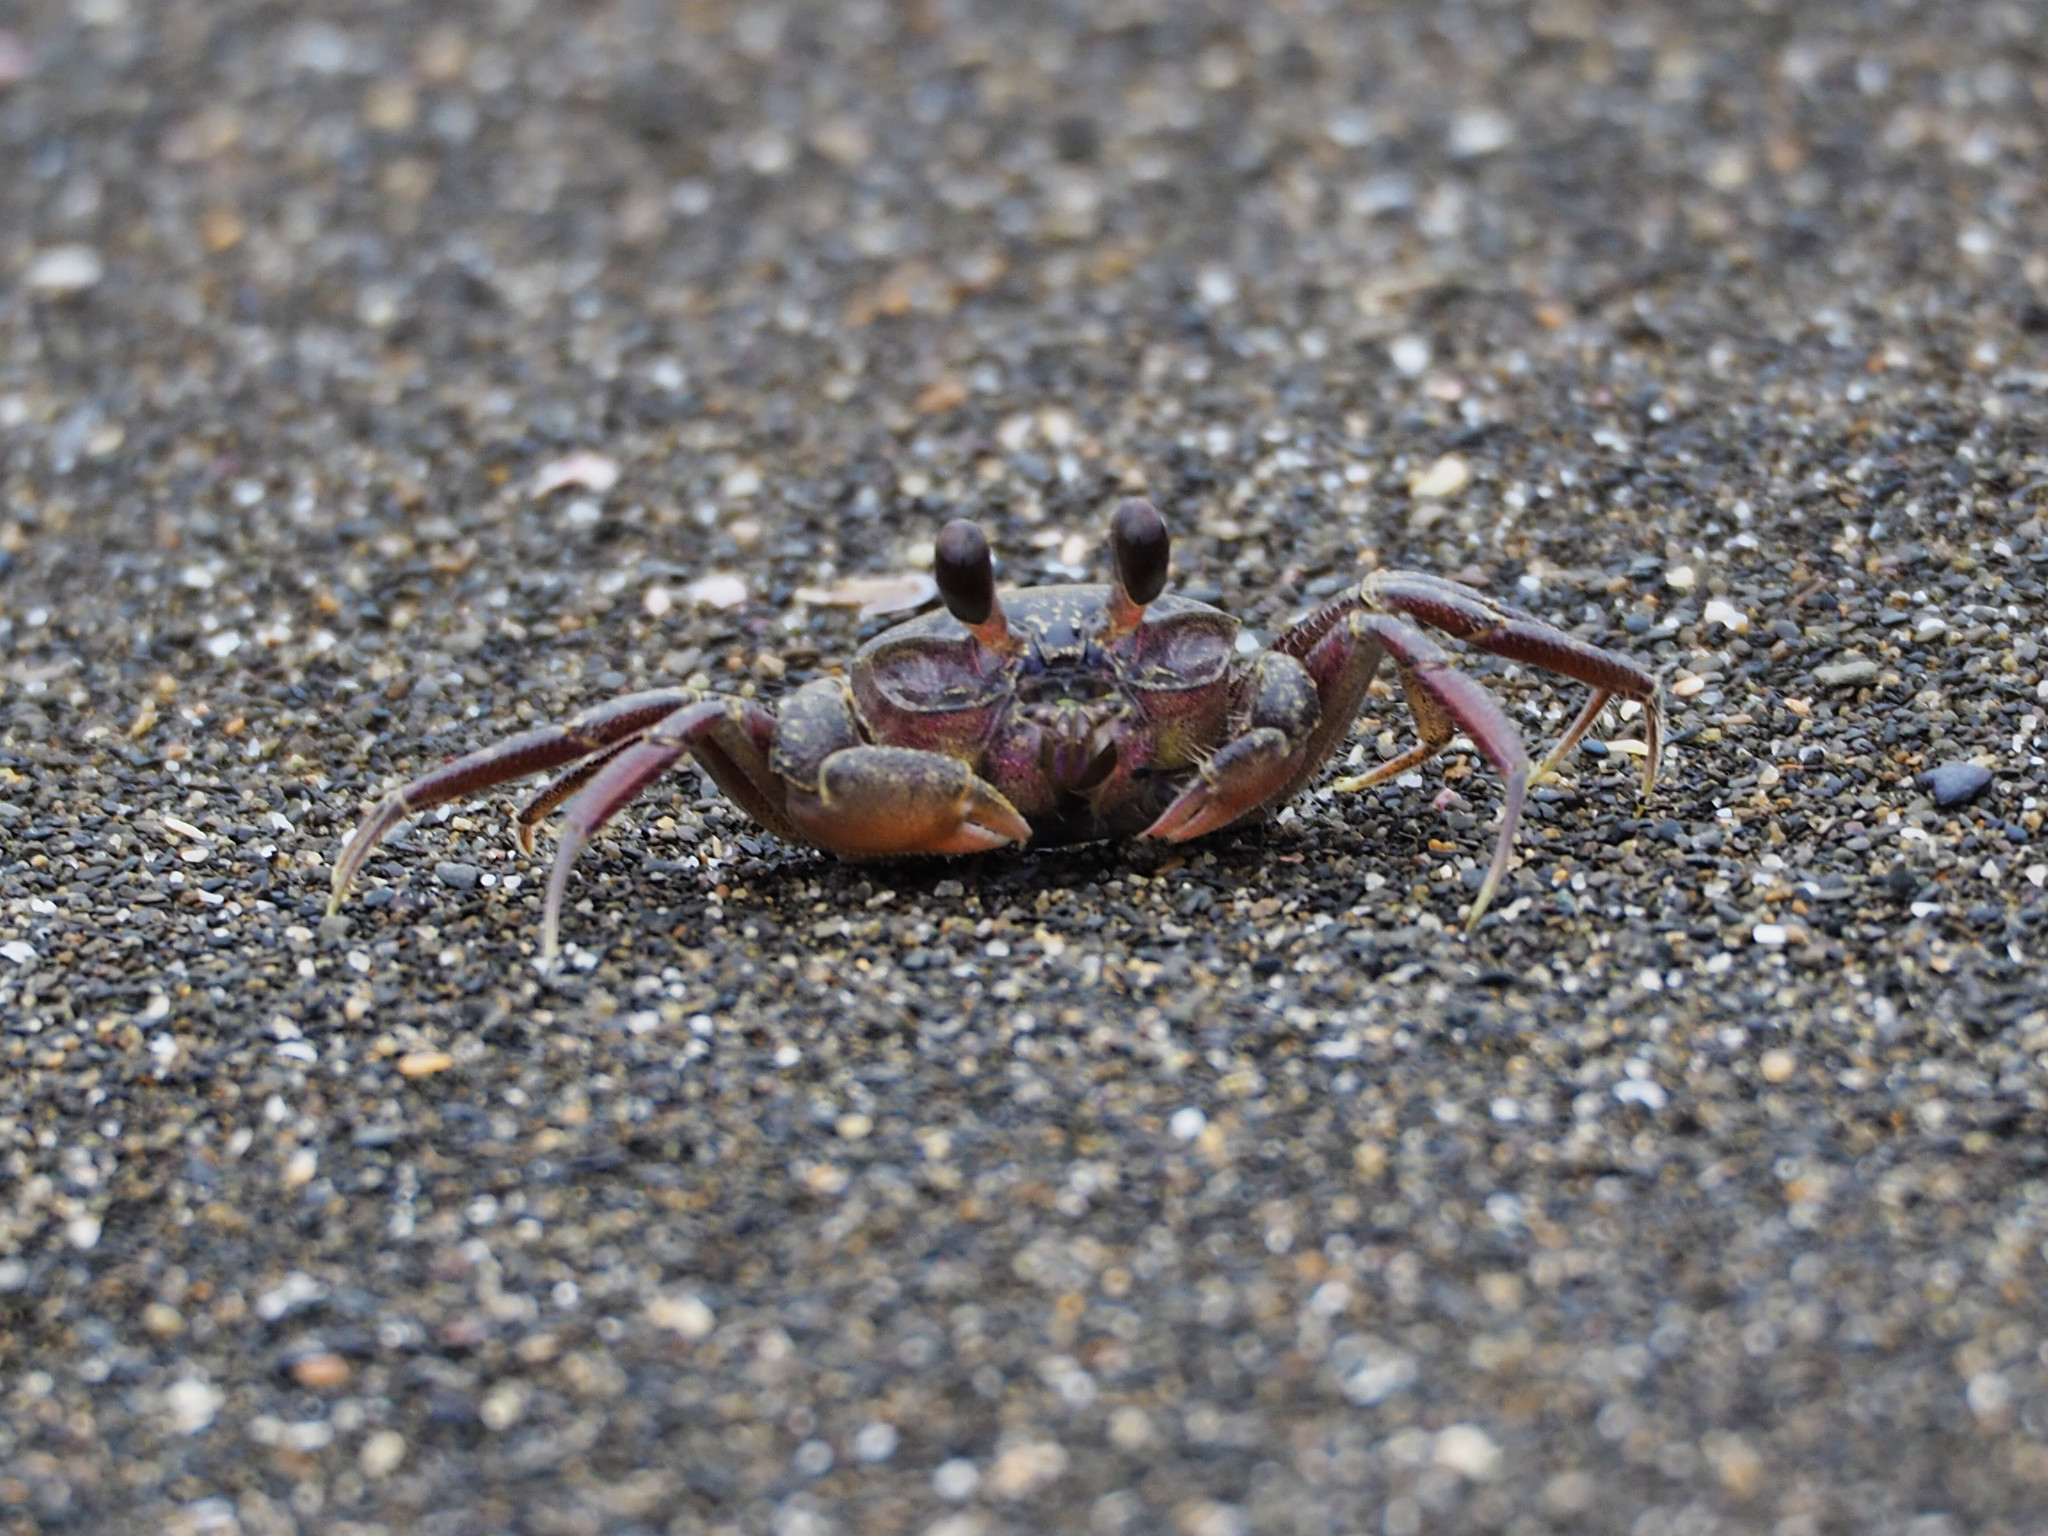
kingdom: Animalia
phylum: Arthropoda
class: Malacostraca
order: Decapoda
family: Ocypodidae
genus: Ocypode
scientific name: Ocypode stimpsoni
